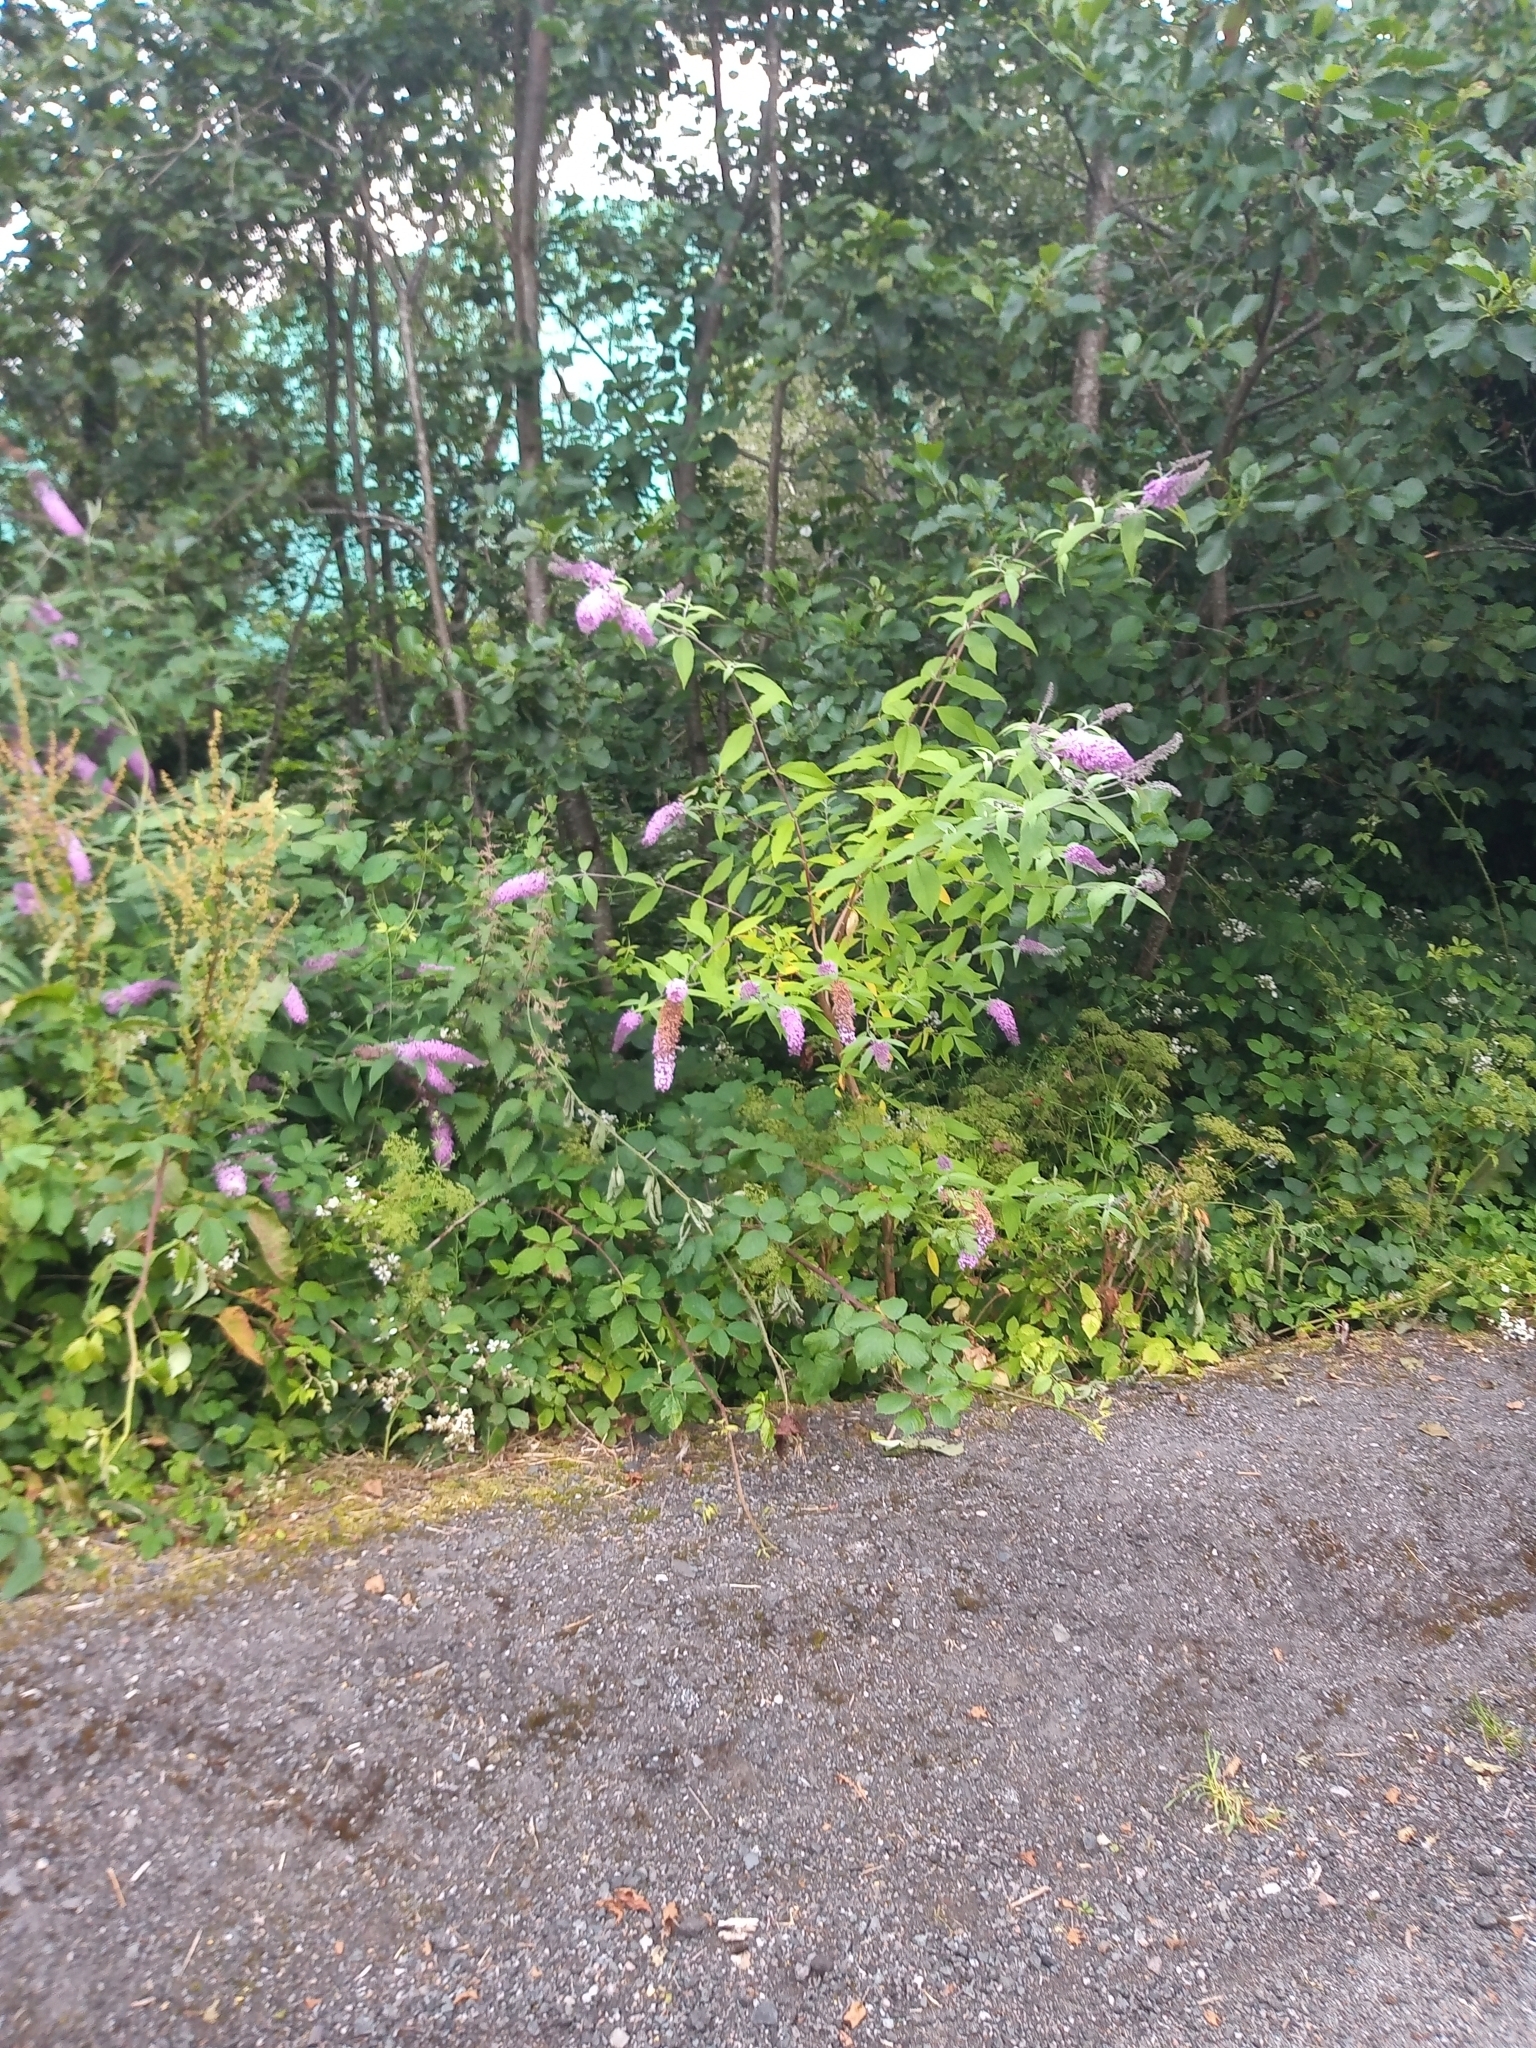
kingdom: Plantae
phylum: Tracheophyta
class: Magnoliopsida
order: Lamiales
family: Scrophulariaceae
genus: Buddleja
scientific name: Buddleja davidii
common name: Butterfly-bush
